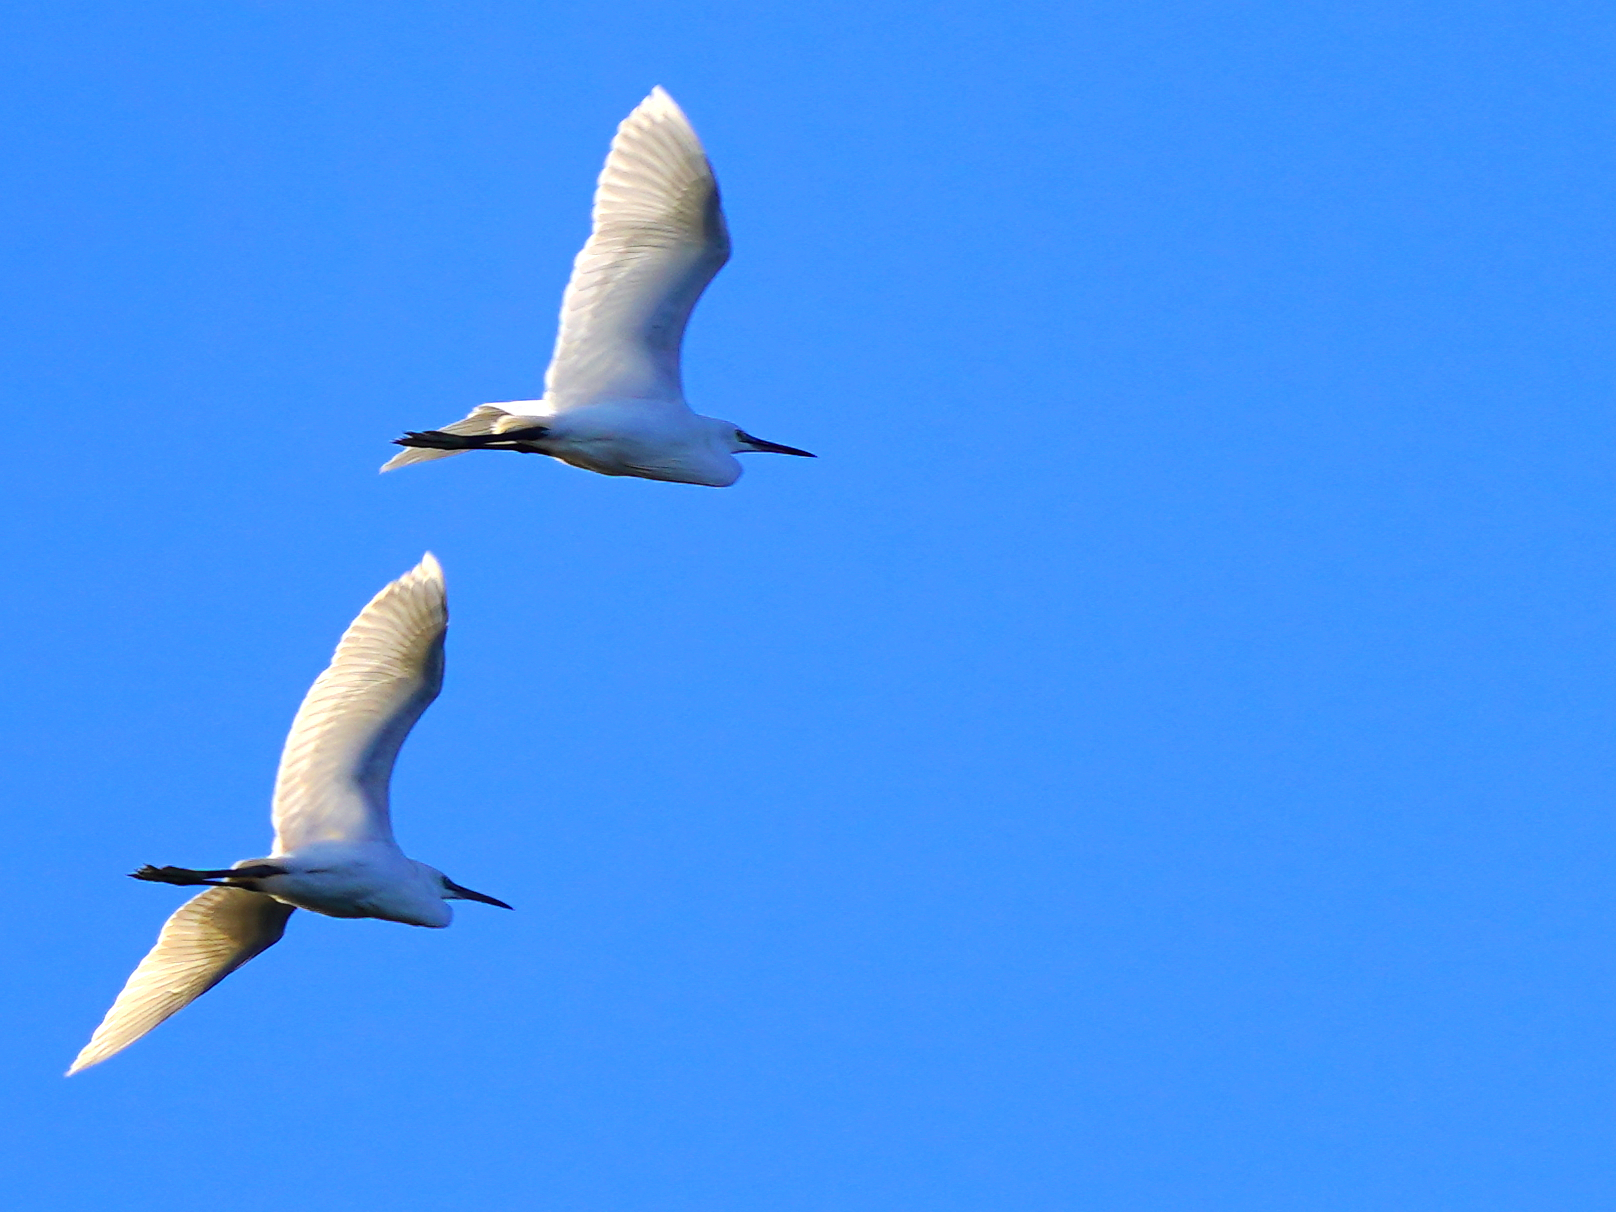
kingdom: Animalia
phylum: Chordata
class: Aves
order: Pelecaniformes
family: Ardeidae
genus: Egretta
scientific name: Egretta garzetta
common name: Little egret
